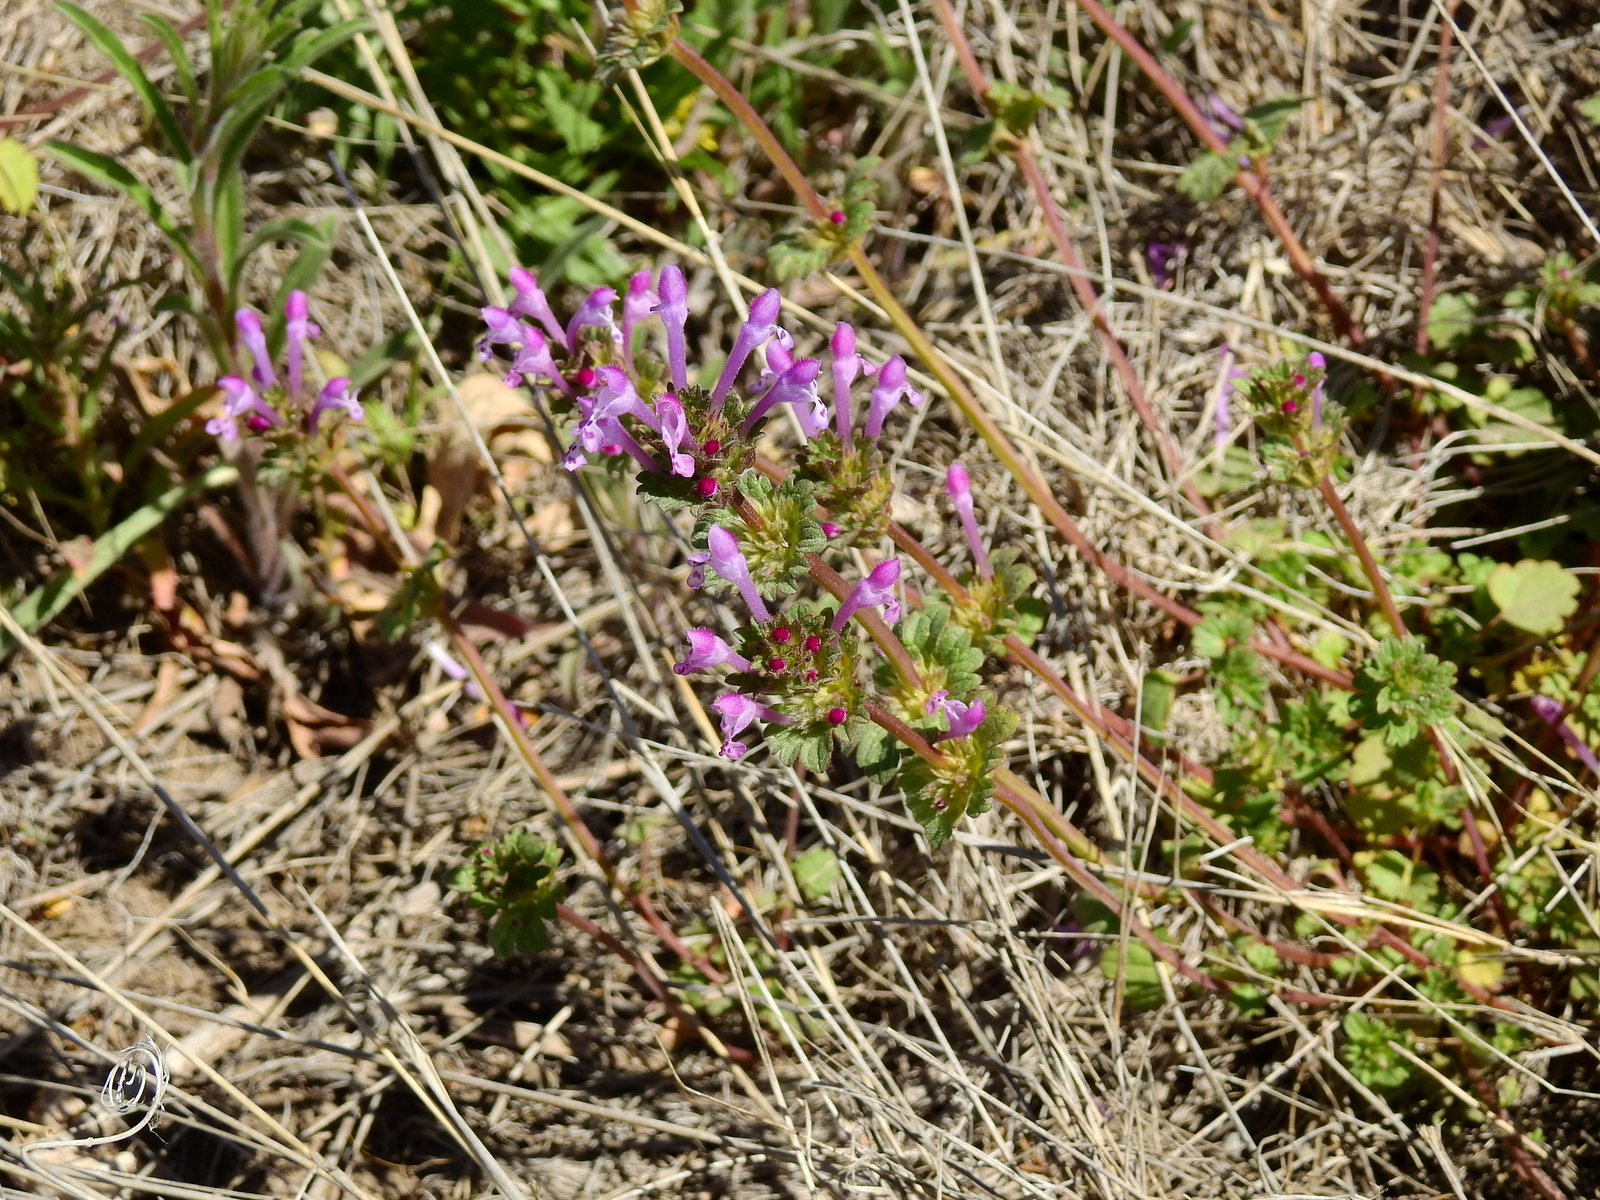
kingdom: Plantae
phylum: Tracheophyta
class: Magnoliopsida
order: Lamiales
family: Lamiaceae
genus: Lamium
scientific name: Lamium amplexicaule
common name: Henbit dead-nettle
